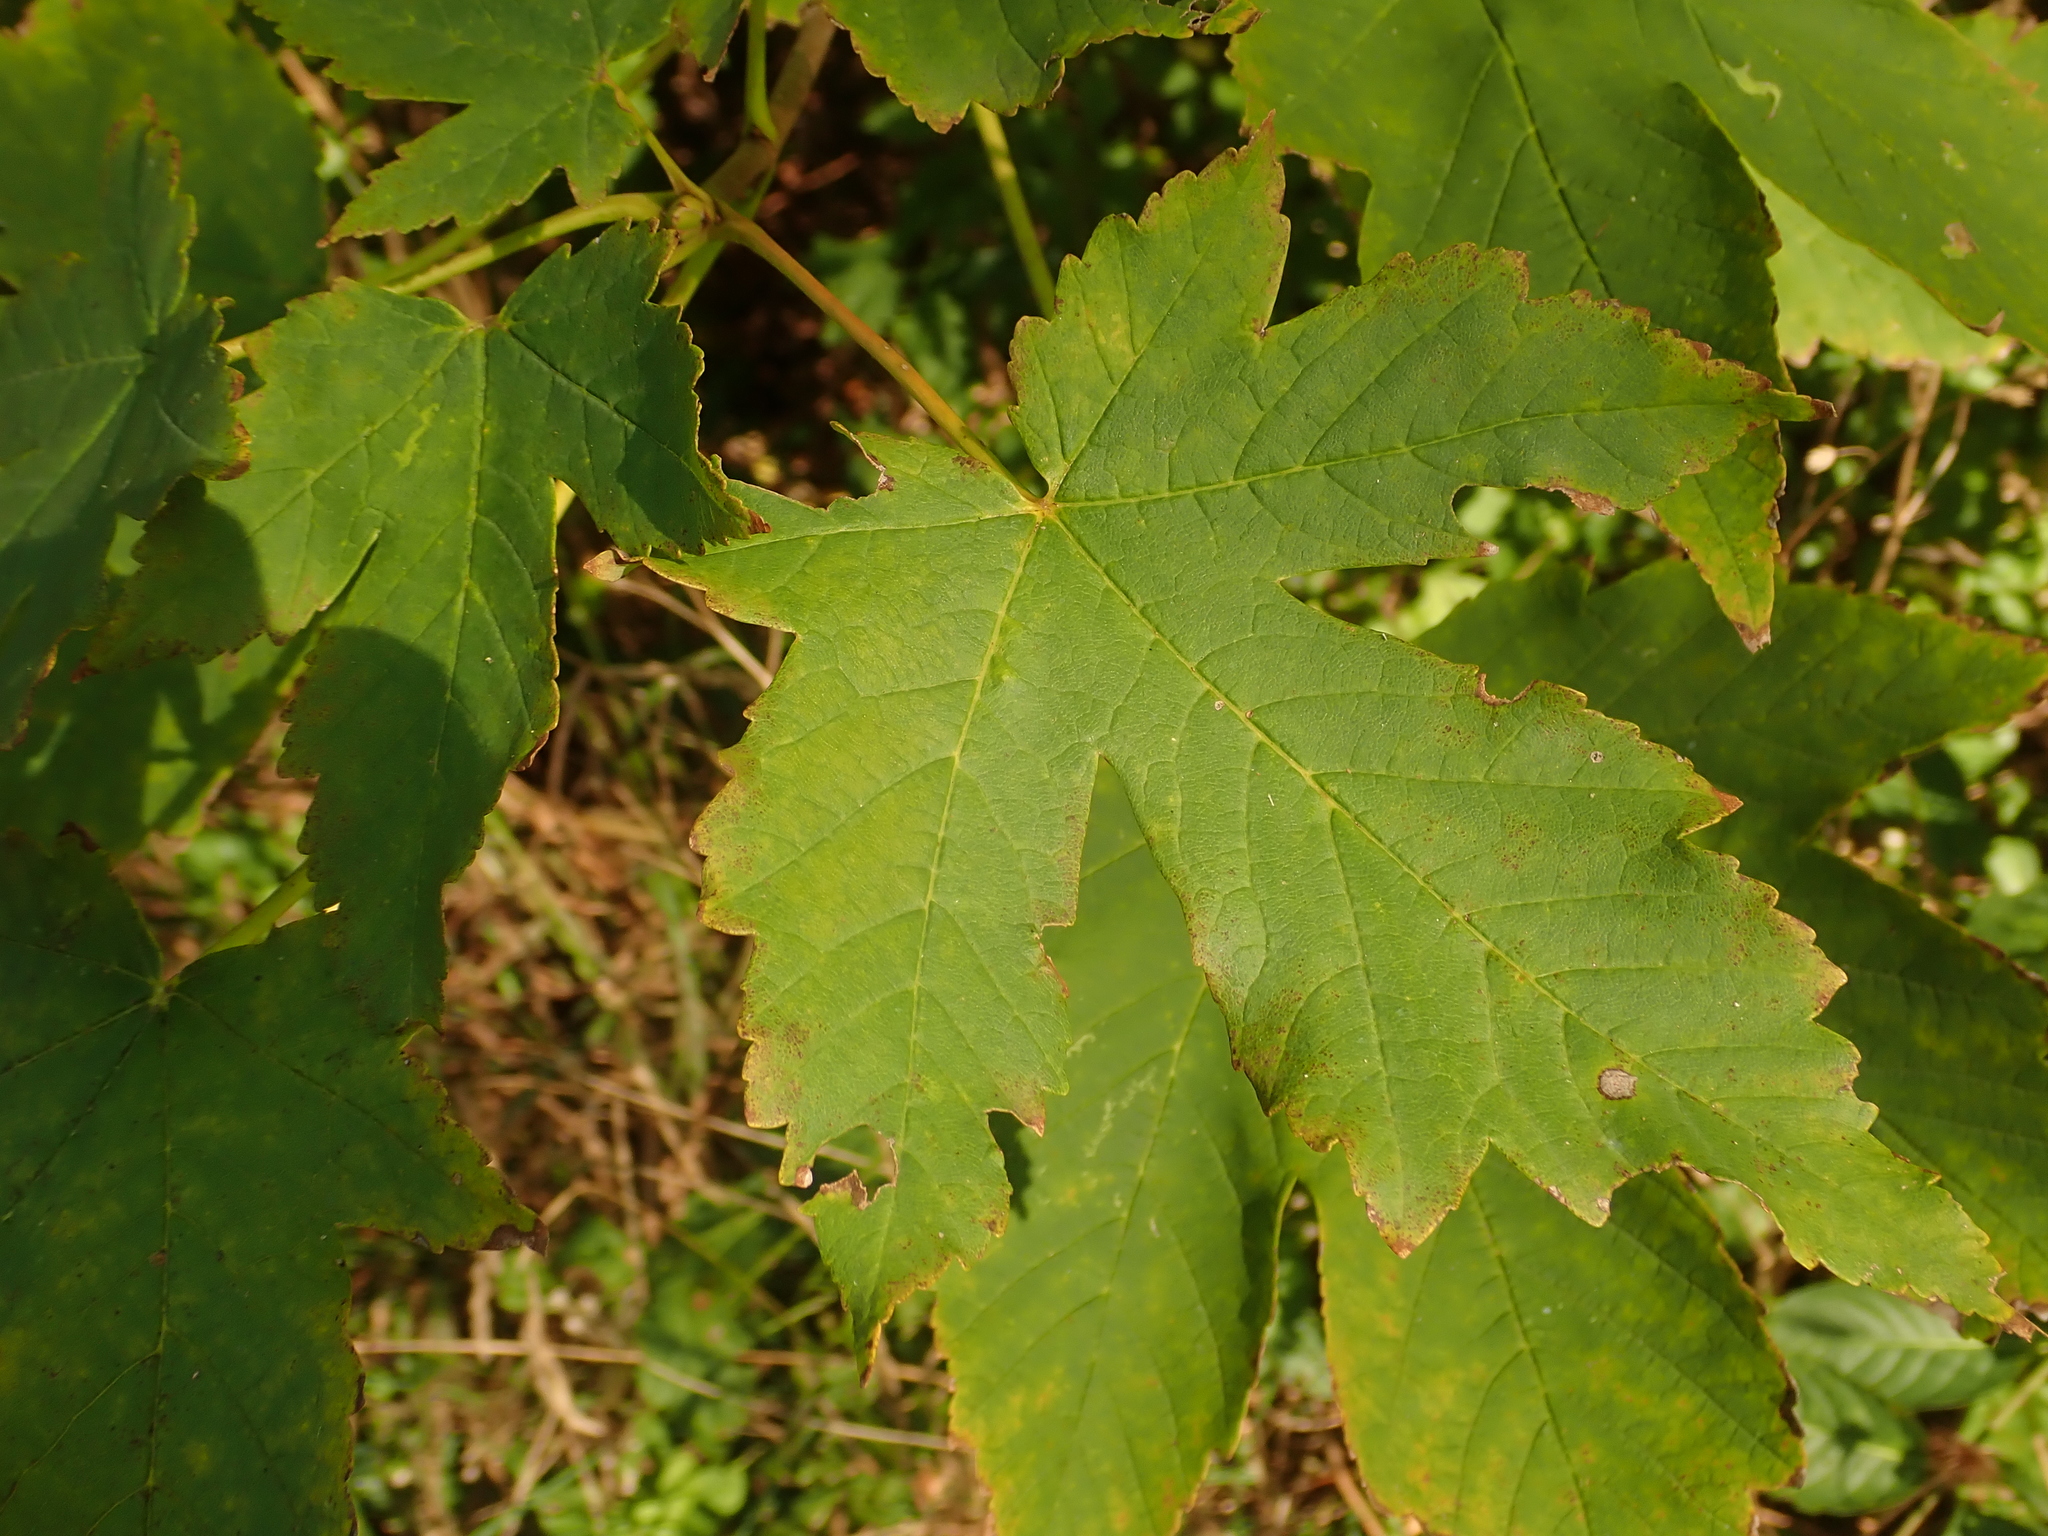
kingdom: Plantae
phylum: Tracheophyta
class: Magnoliopsida
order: Sapindales
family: Sapindaceae
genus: Acer
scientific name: Acer pseudoplatanus
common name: Sycamore
